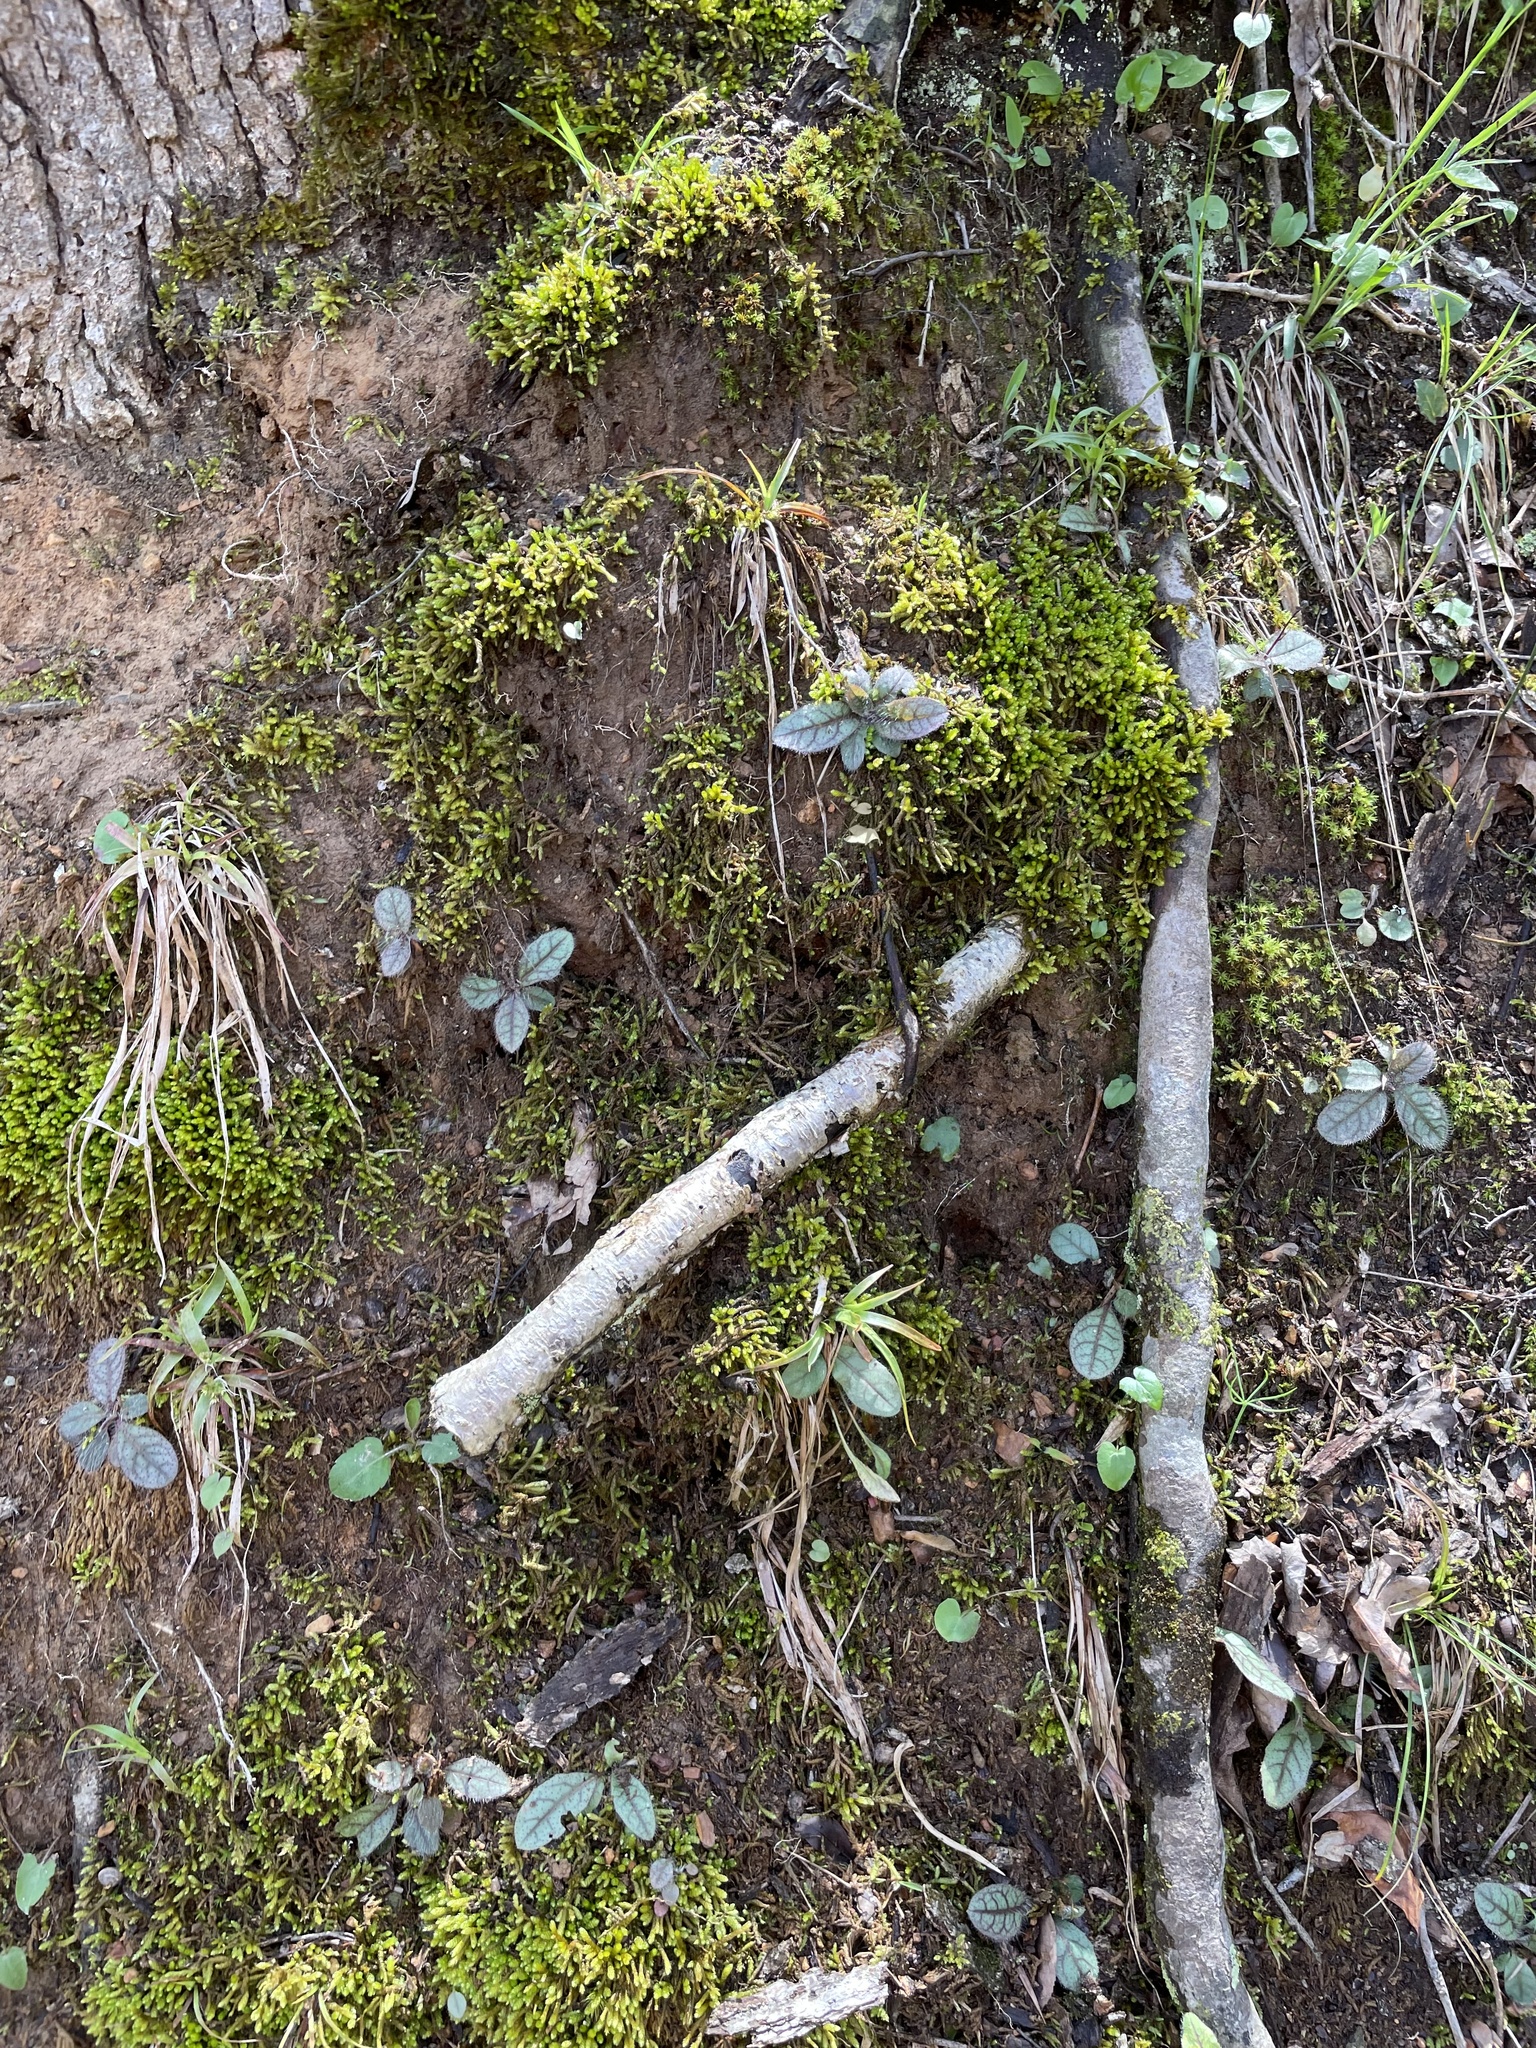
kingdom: Plantae
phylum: Tracheophyta
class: Magnoliopsida
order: Asterales
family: Asteraceae
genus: Hieracium
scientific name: Hieracium venosum
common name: Rattlesnake hawkweed
